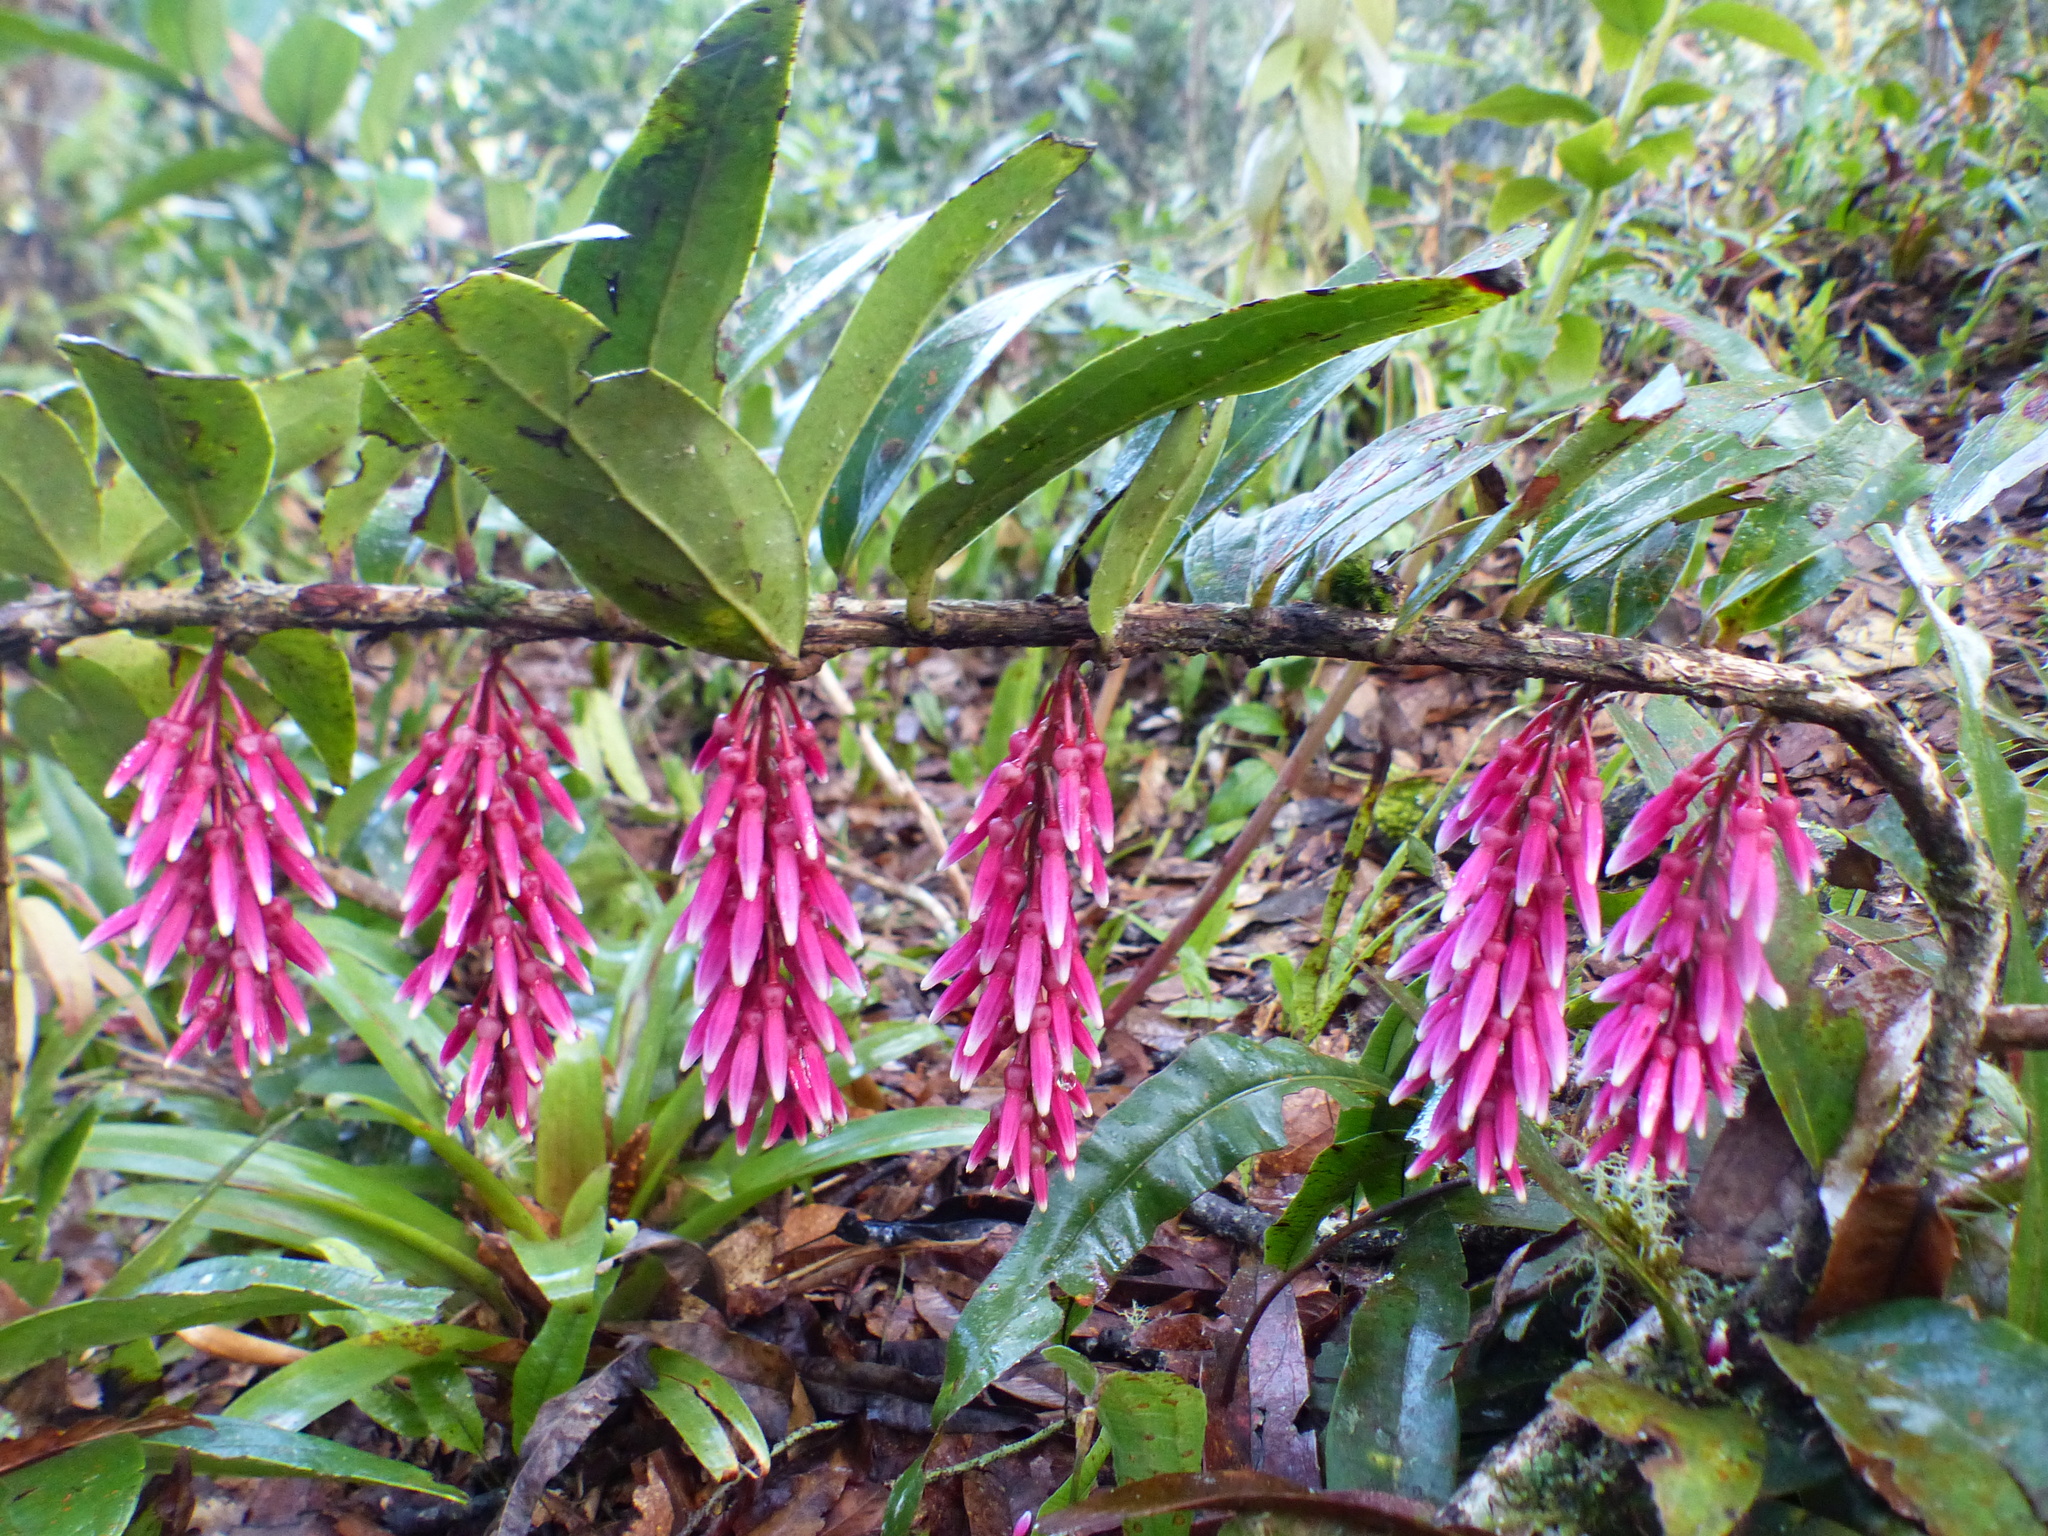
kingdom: Plantae
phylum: Tracheophyta
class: Magnoliopsida
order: Ericales
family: Ericaceae
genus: Thibaudia
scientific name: Thibaudia floribunda
